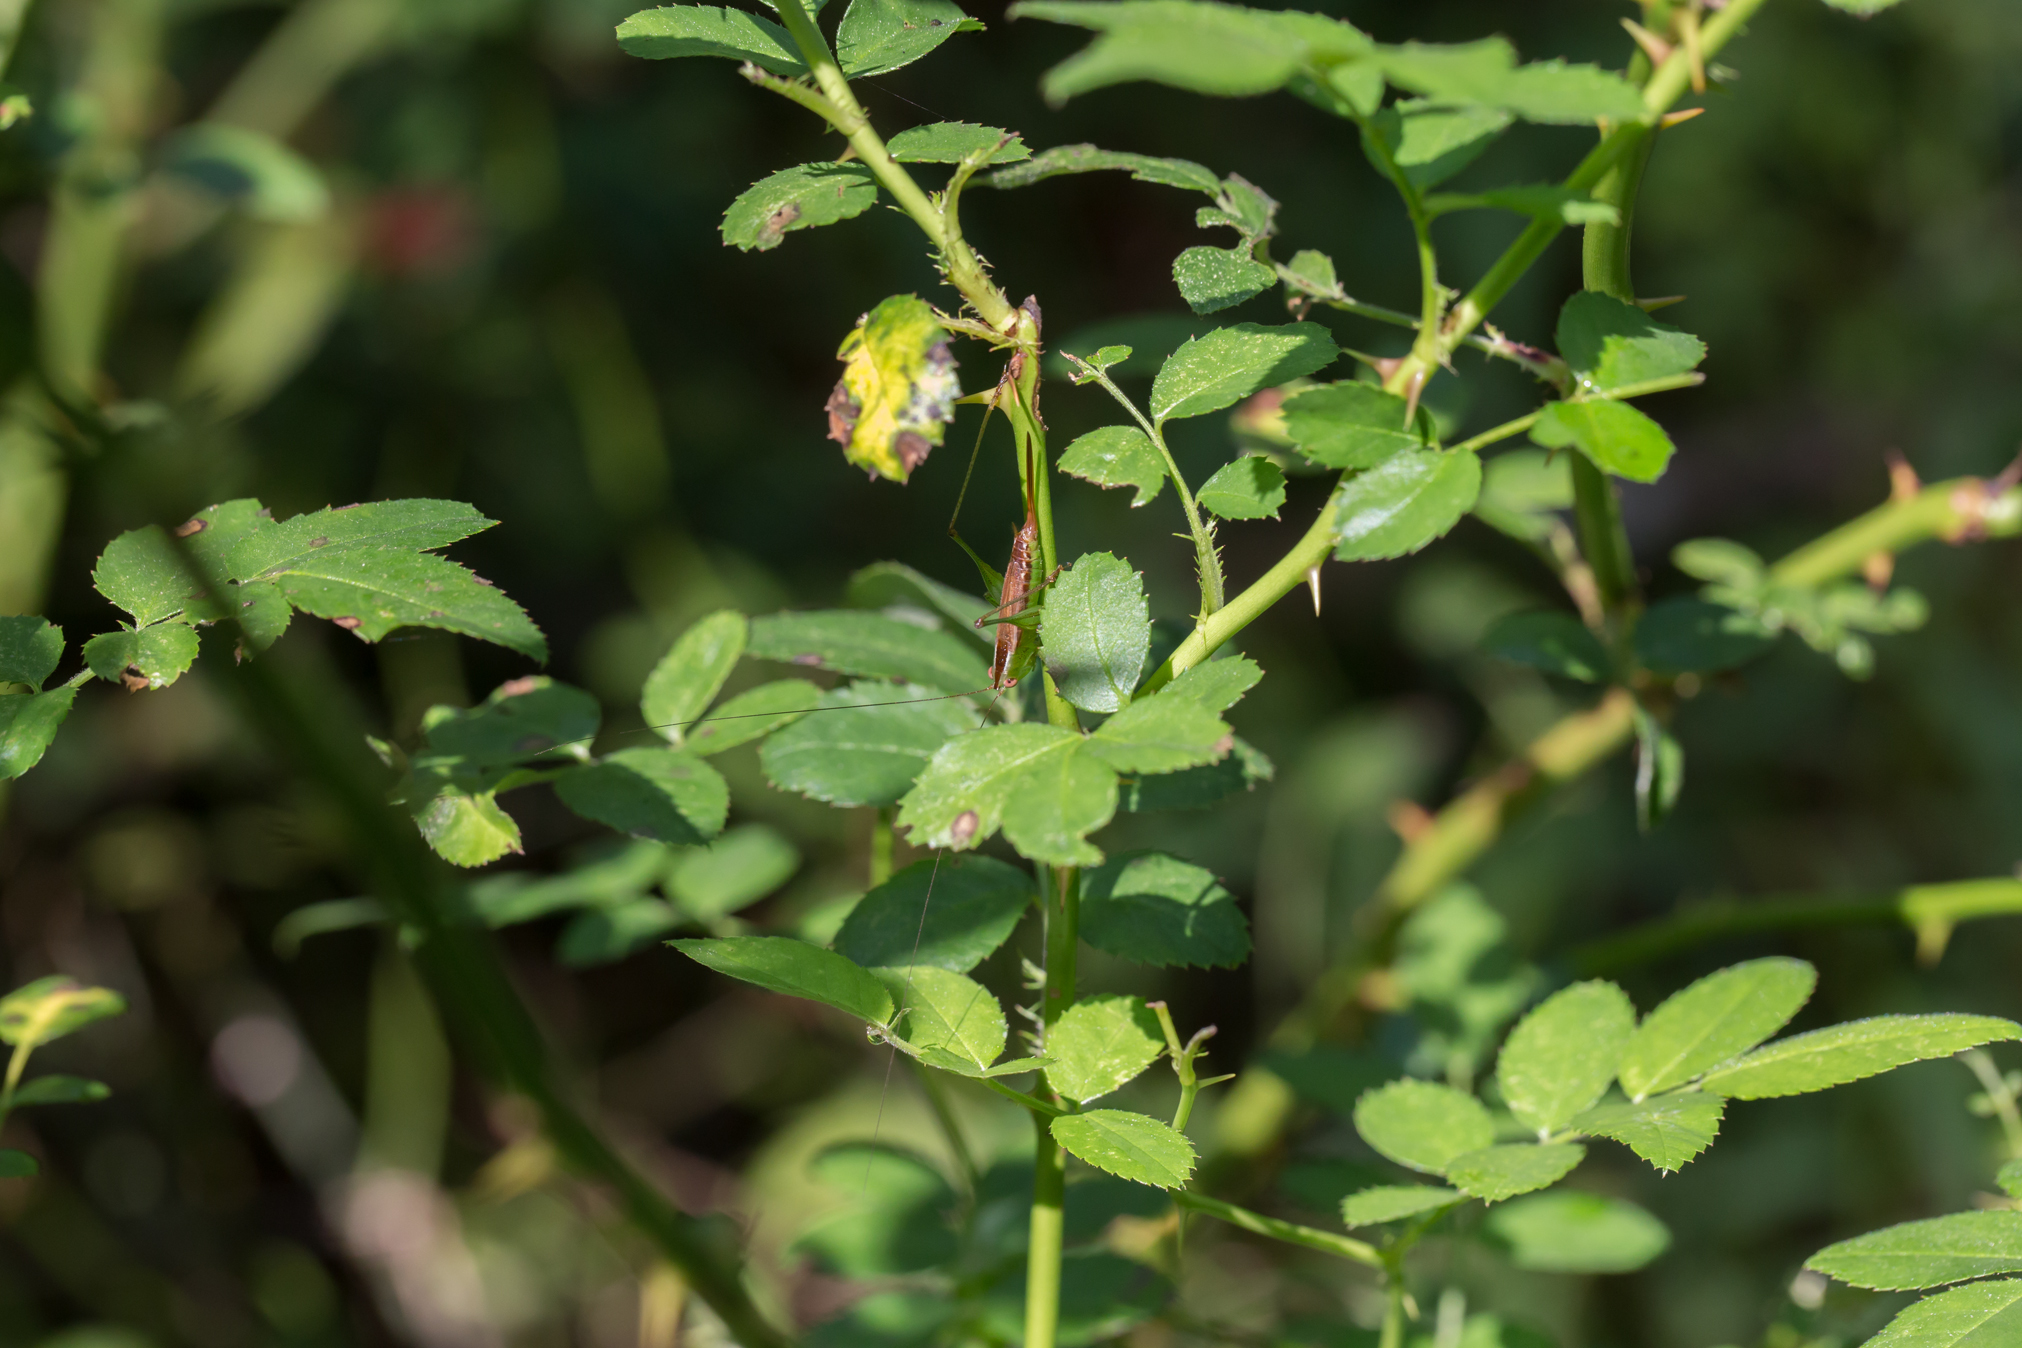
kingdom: Plantae
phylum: Tracheophyta
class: Magnoliopsida
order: Rosales
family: Rosaceae
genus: Rosa
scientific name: Rosa multiflora
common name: Multiflora rose
